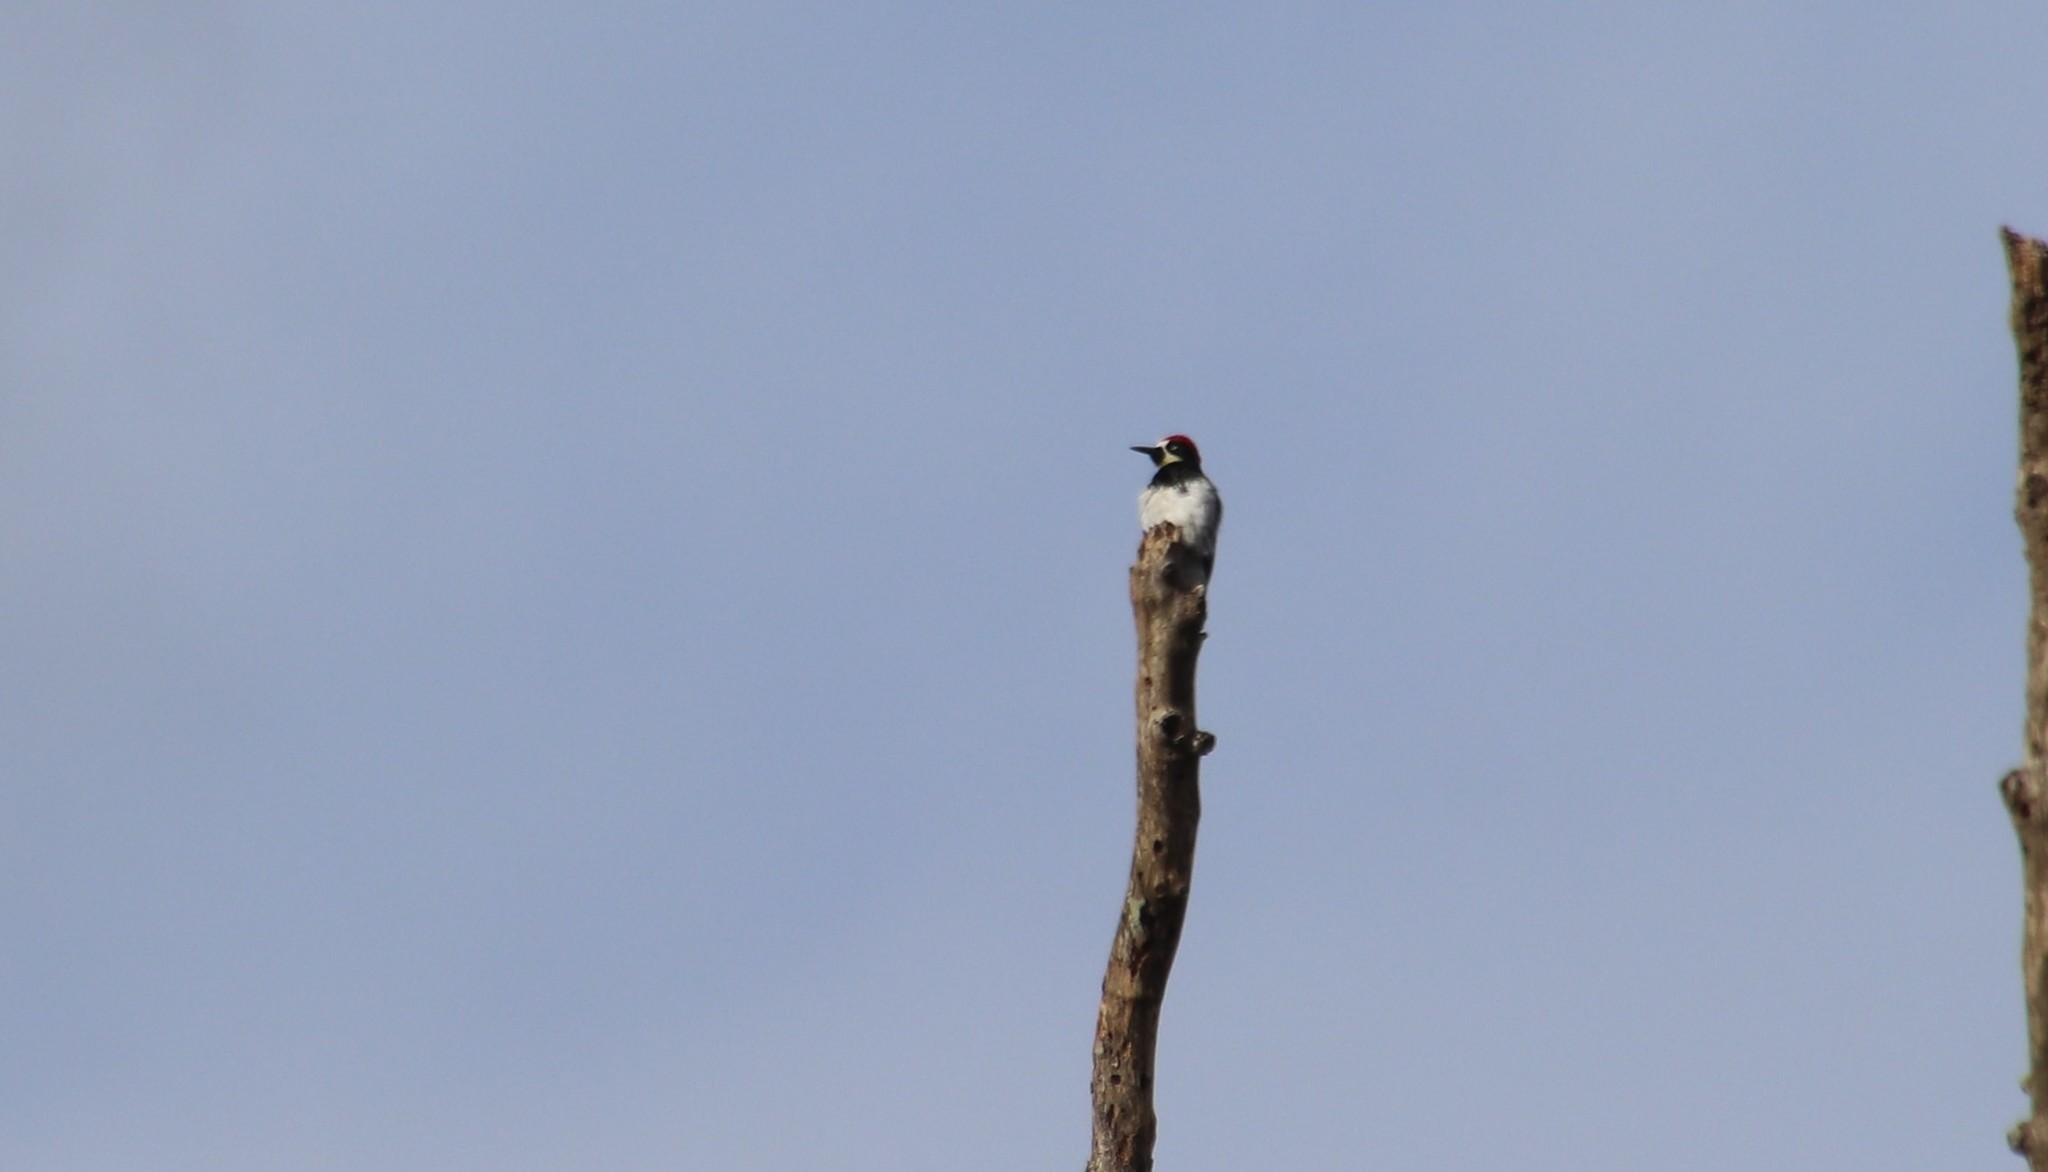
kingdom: Animalia
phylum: Chordata
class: Aves
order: Piciformes
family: Picidae
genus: Melanerpes
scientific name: Melanerpes formicivorus
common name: Acorn woodpecker
